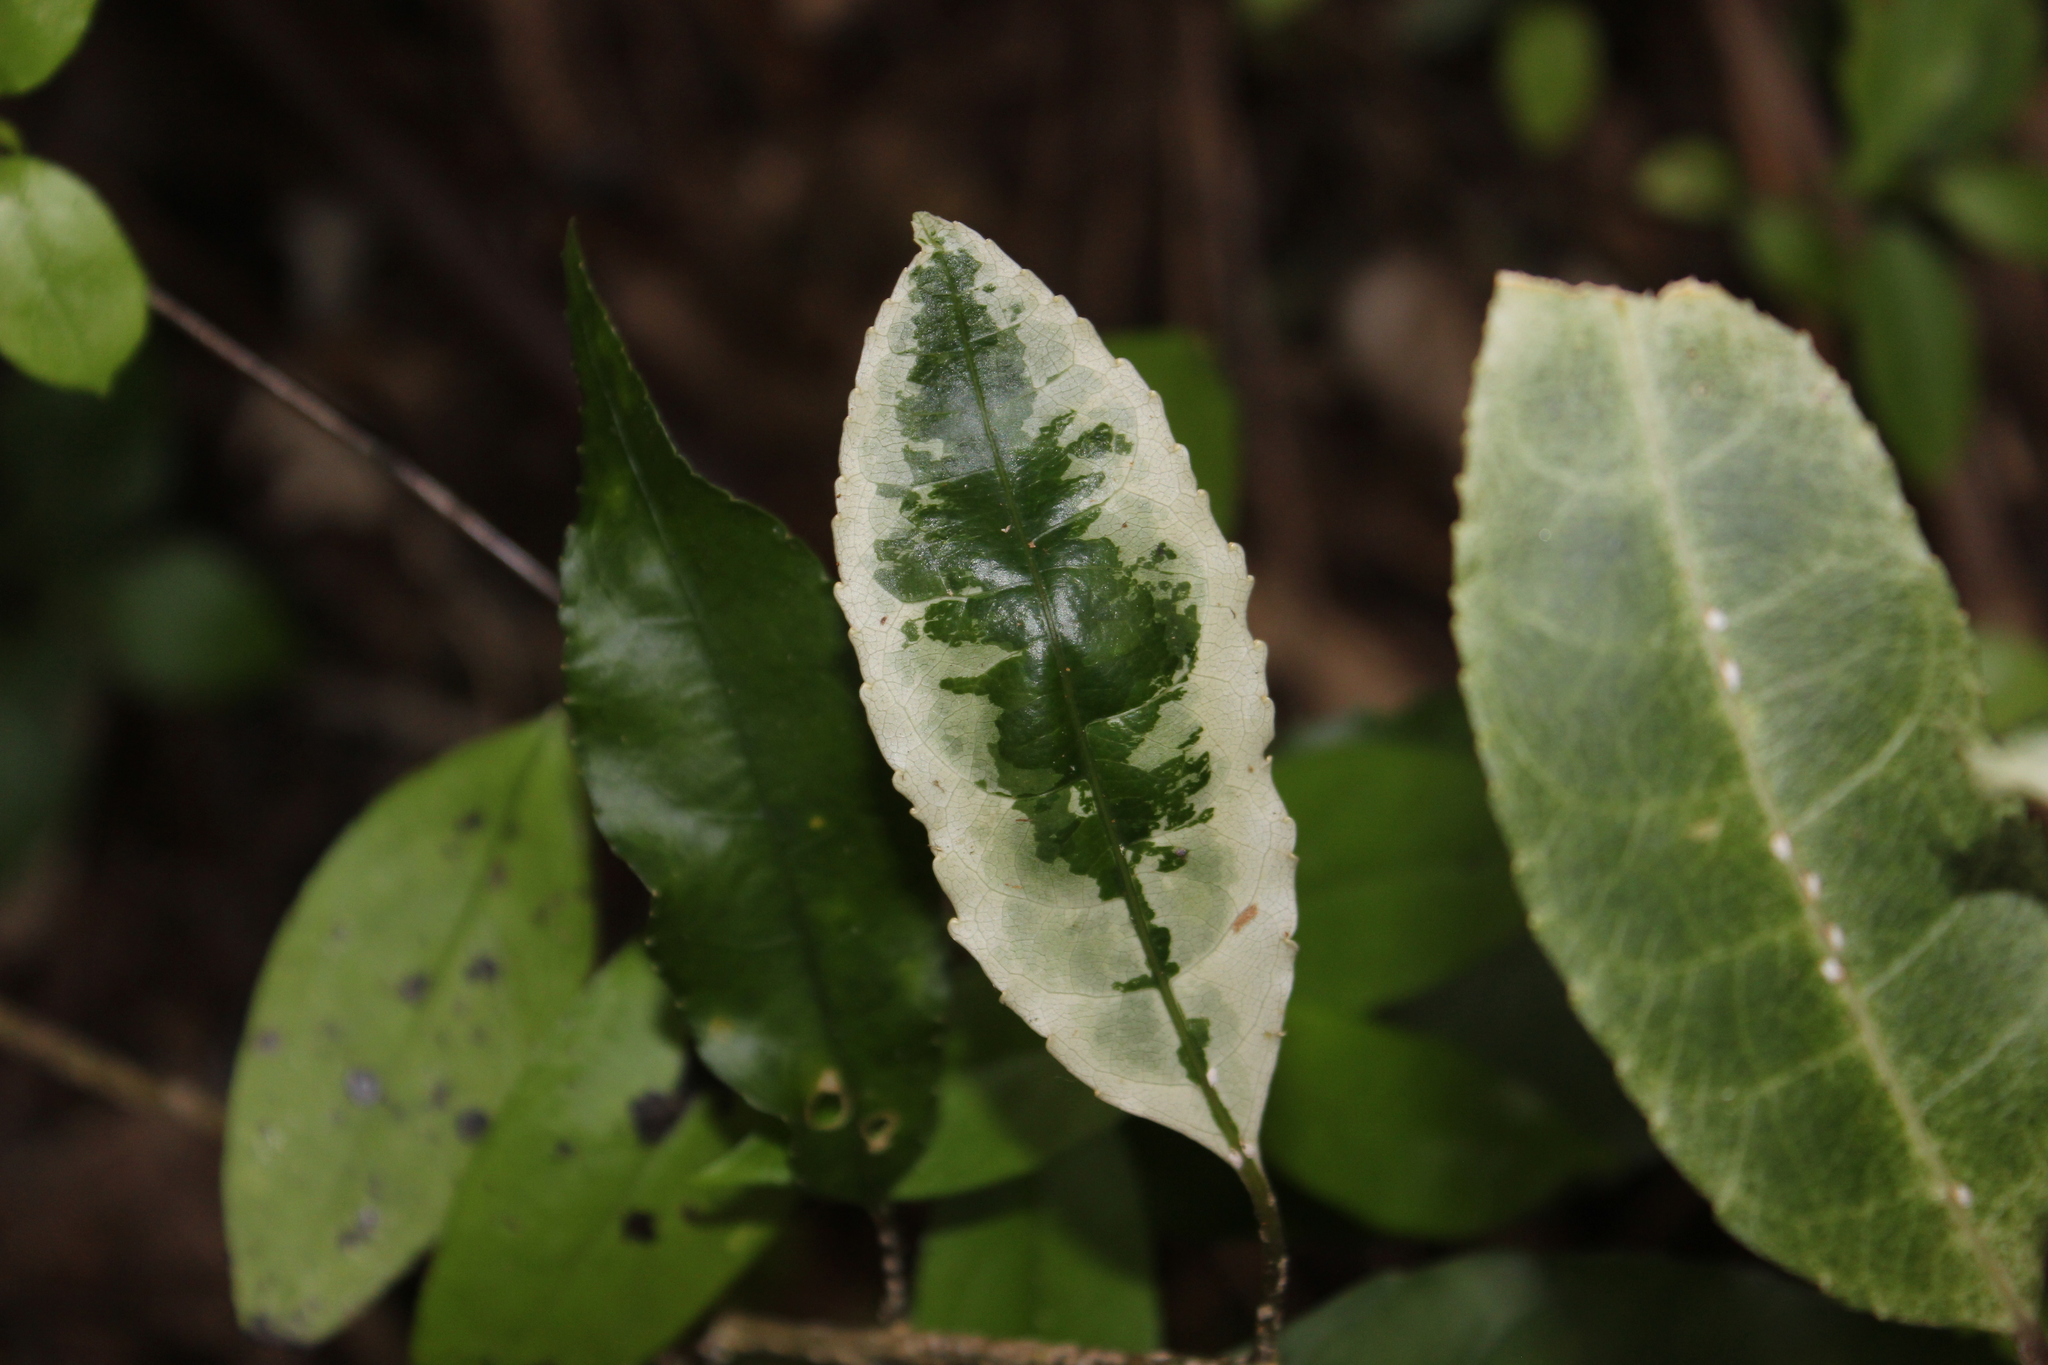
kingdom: Plantae
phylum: Tracheophyta
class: Magnoliopsida
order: Malpighiales
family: Violaceae
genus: Melicytus
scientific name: Melicytus ramiflorus
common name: Mahoe
